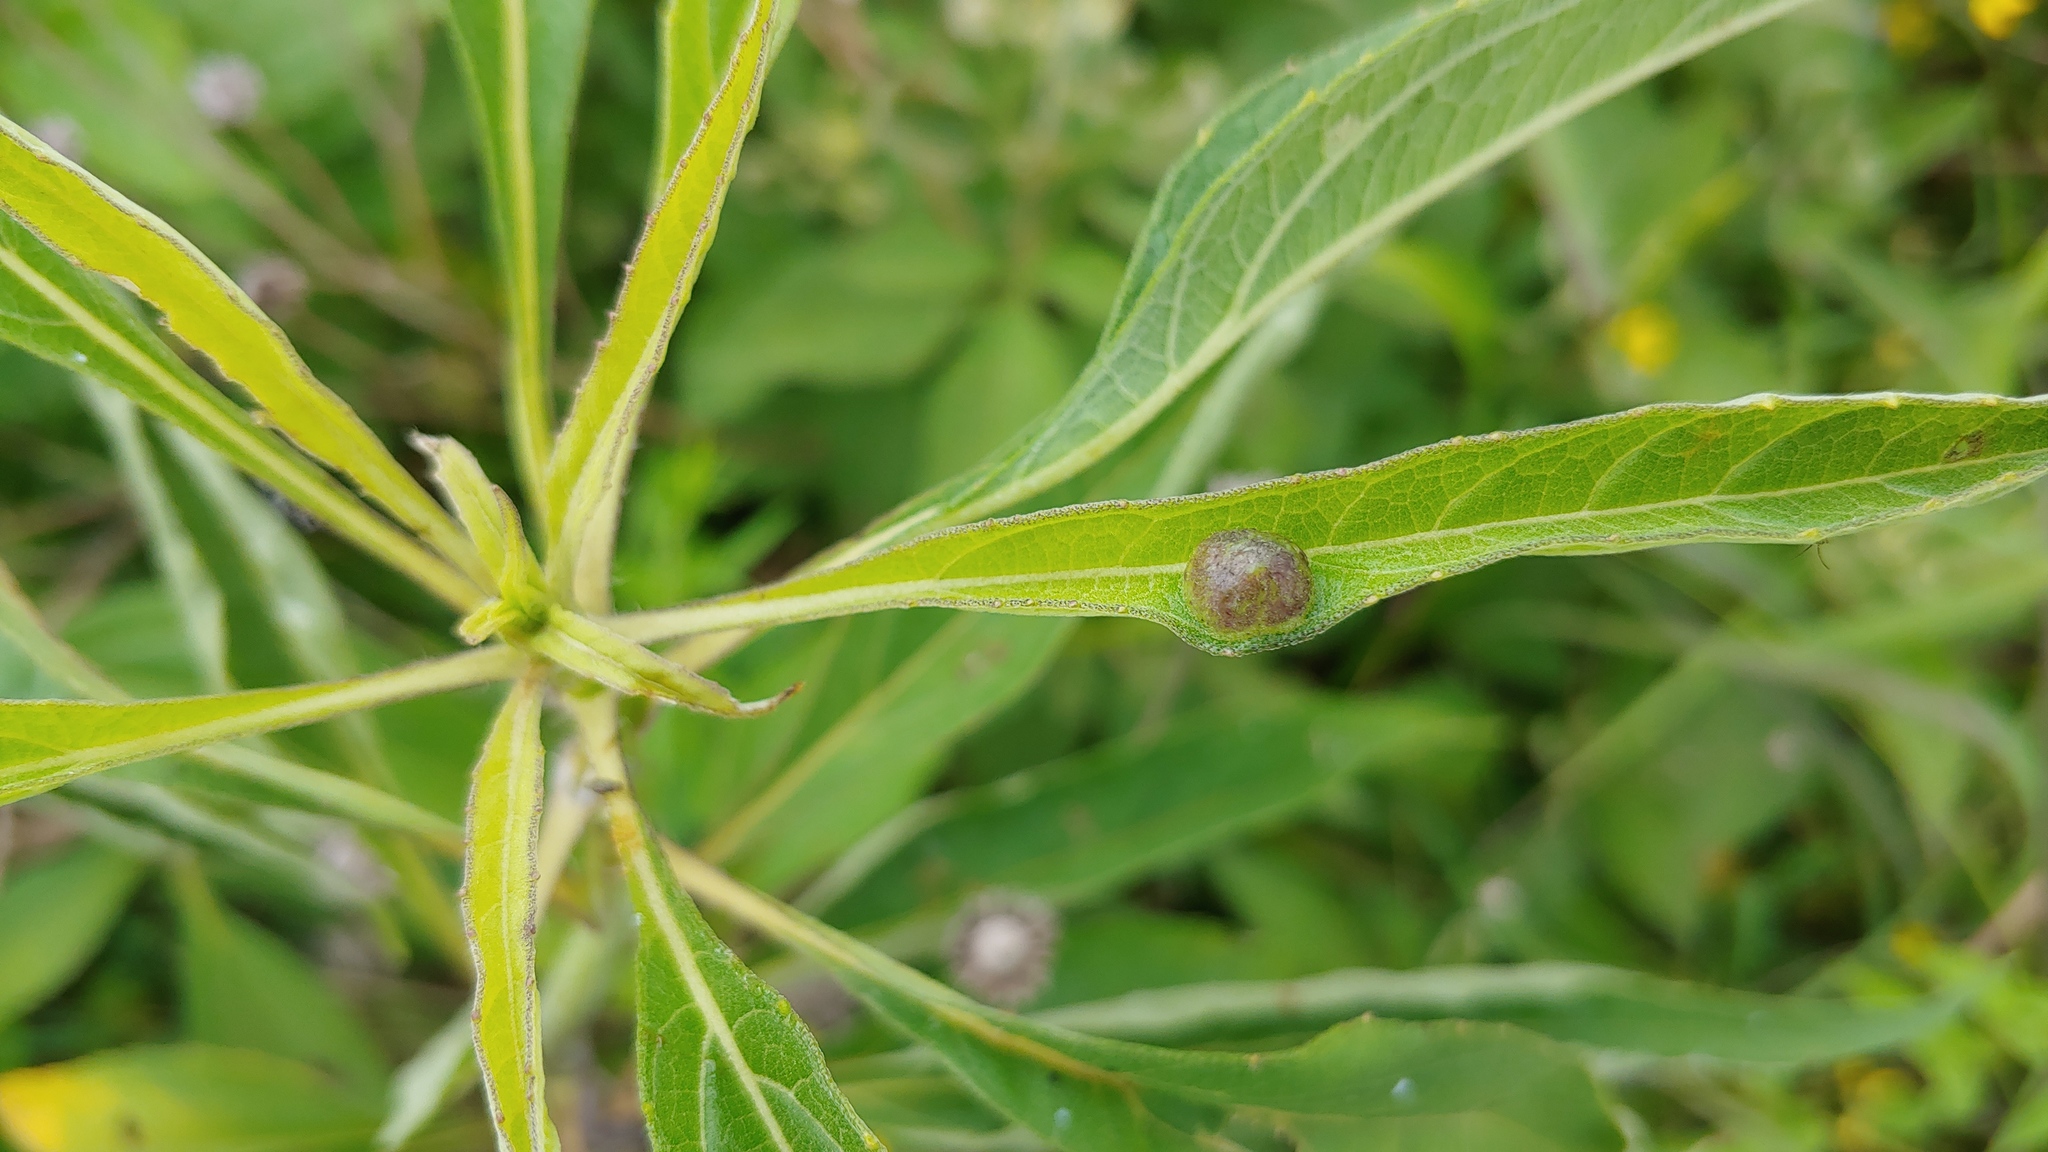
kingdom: Animalia
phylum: Arthropoda
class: Insecta
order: Diptera
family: Cecidomyiidae
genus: Pilodiplosis
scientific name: Pilodiplosis helianthibulla
